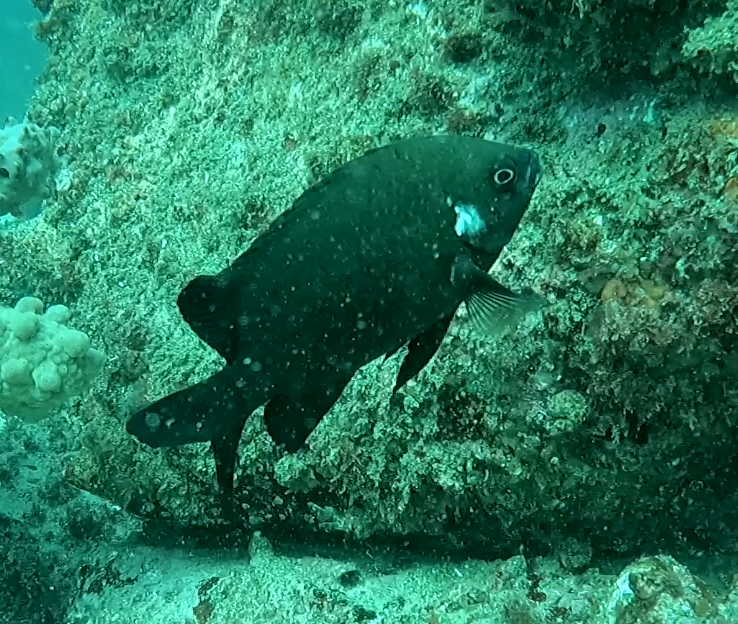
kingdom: Animalia
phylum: Chordata
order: Perciformes
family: Pomacentridae
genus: Parma
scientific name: Parma microlepis
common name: White-ear
